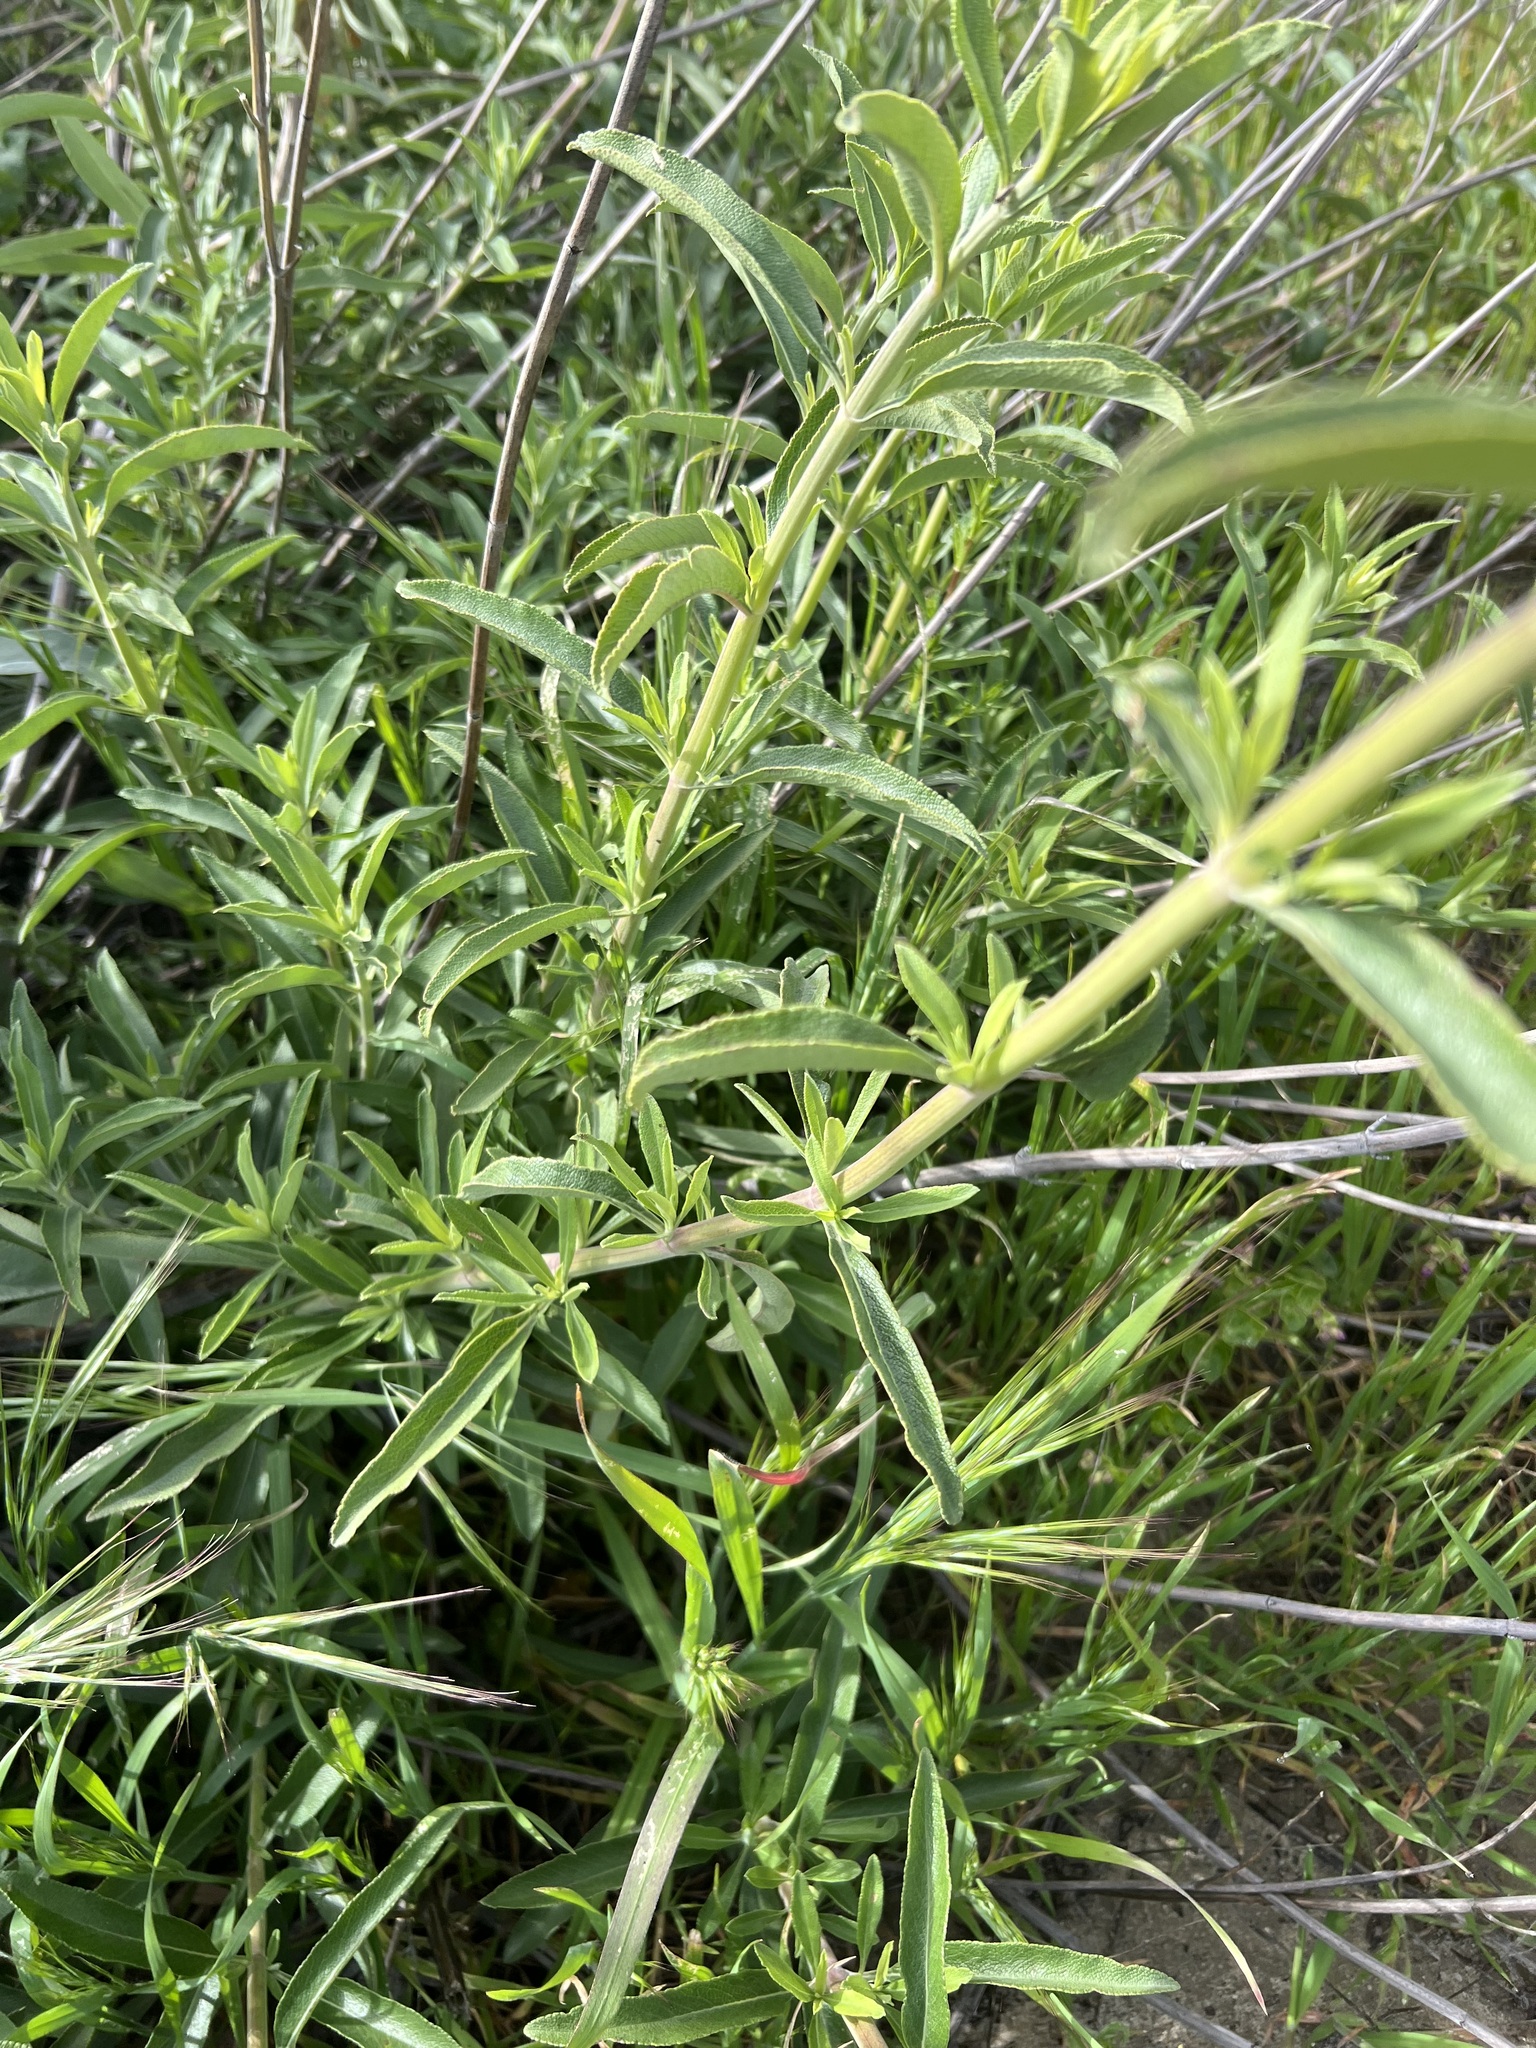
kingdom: Plantae
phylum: Tracheophyta
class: Magnoliopsida
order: Lamiales
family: Lamiaceae
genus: Salvia
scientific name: Salvia
